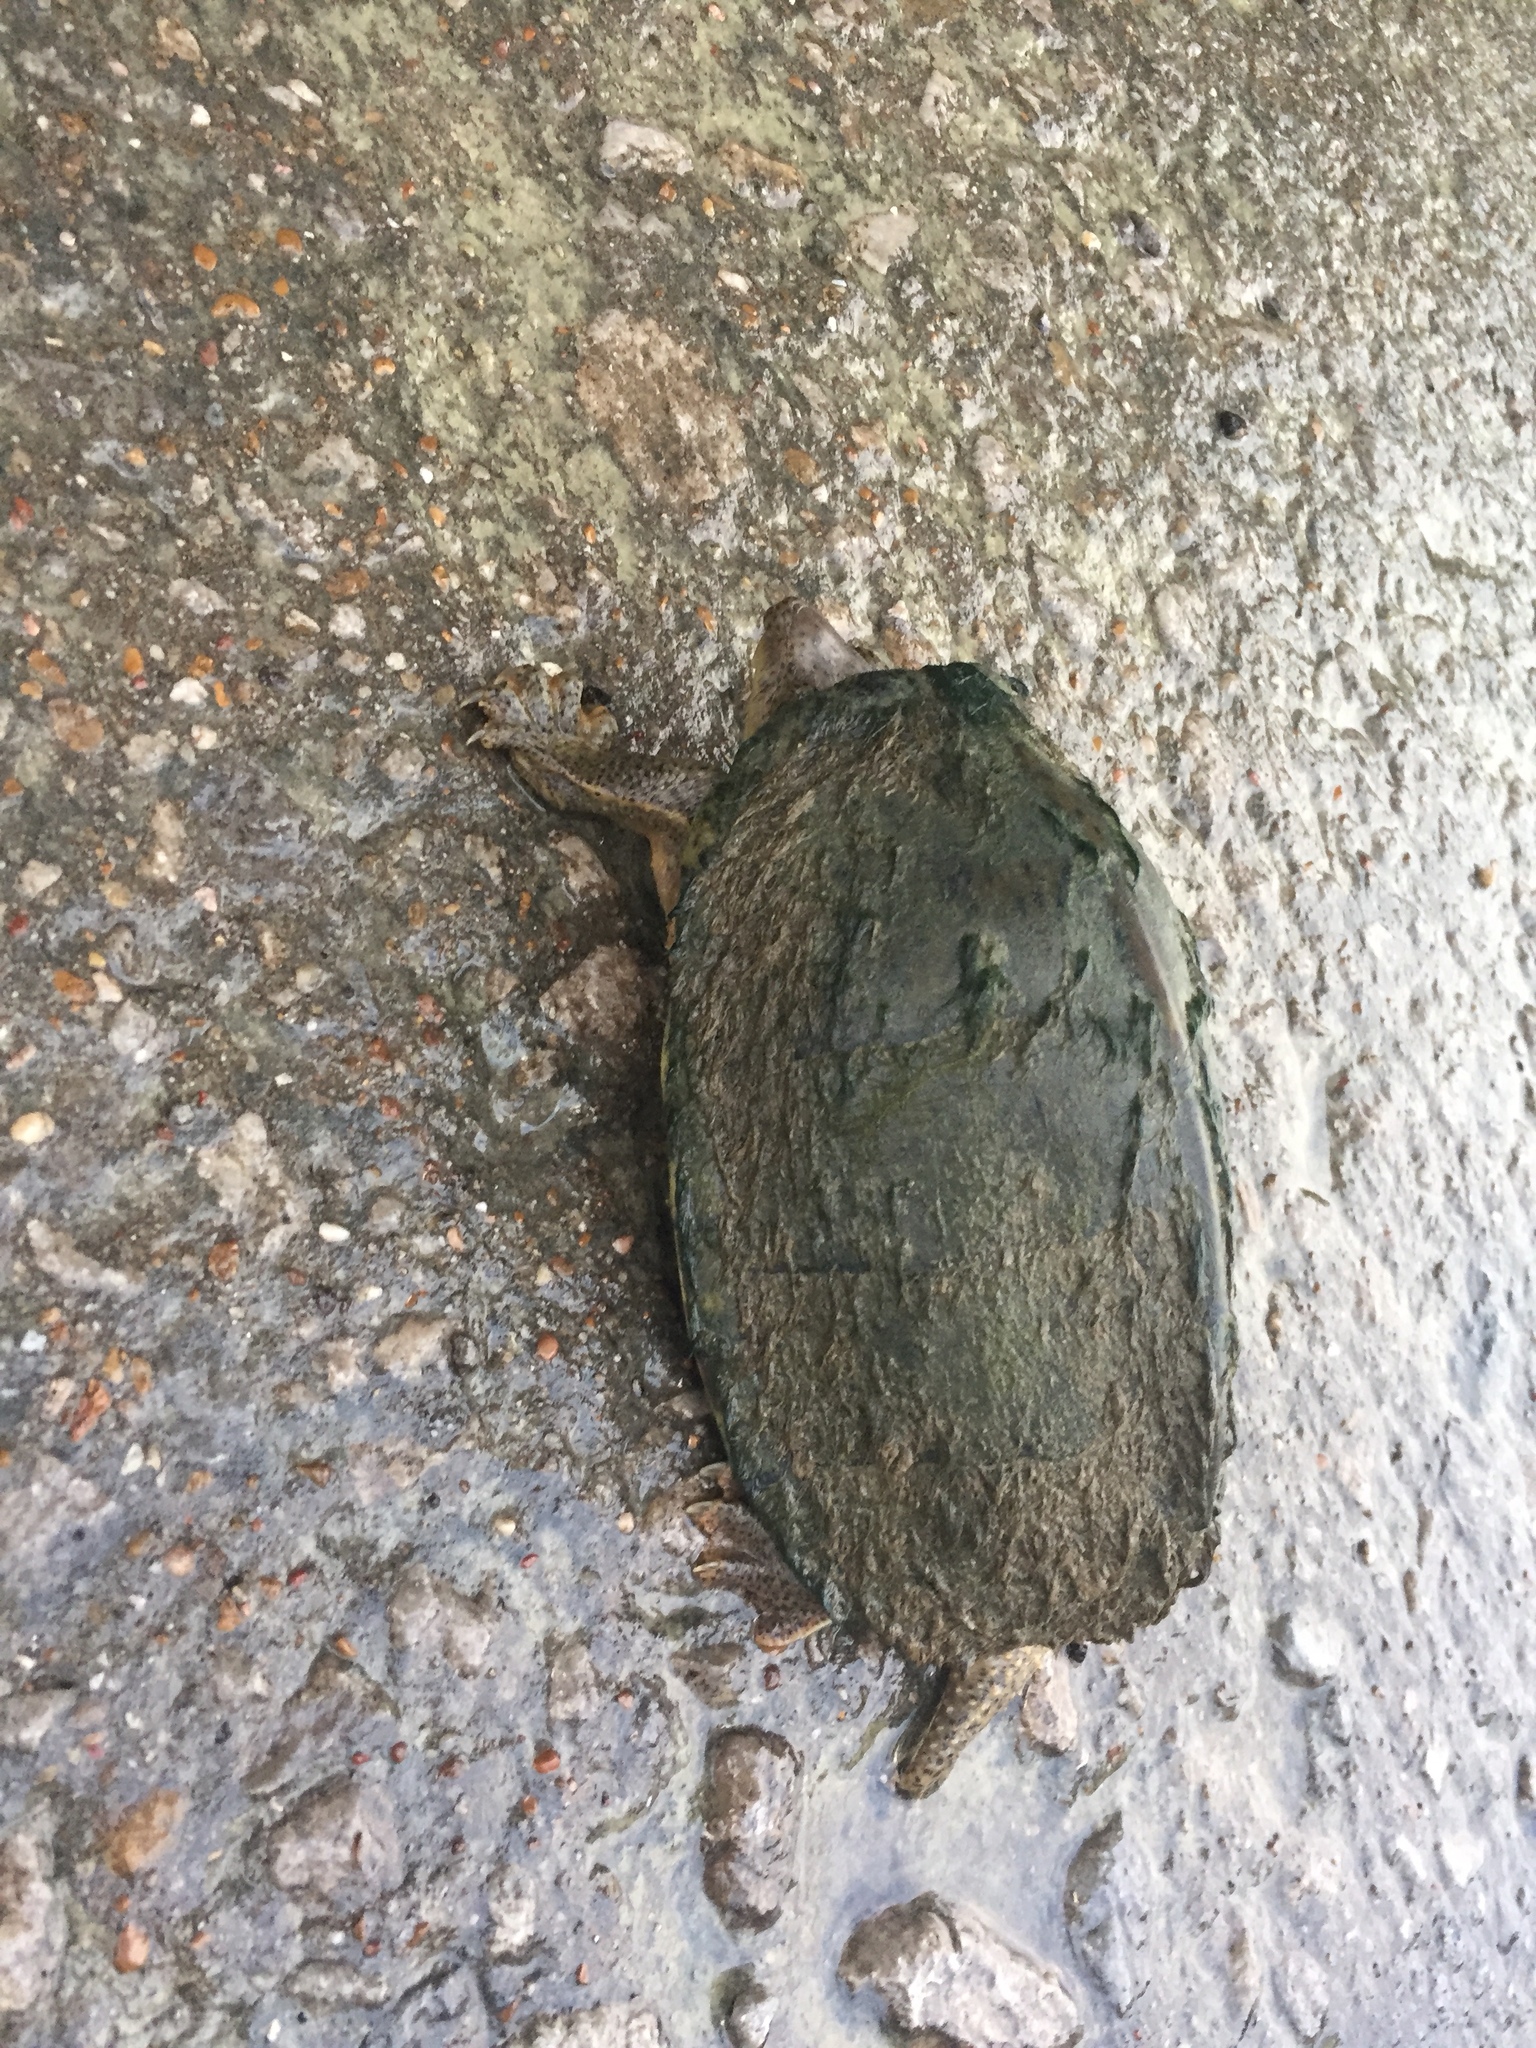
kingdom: Animalia
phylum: Chordata
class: Testudines
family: Kinosternidae
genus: Sternotherus
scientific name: Sternotherus carinatus
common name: Razor-backed musk turtle
